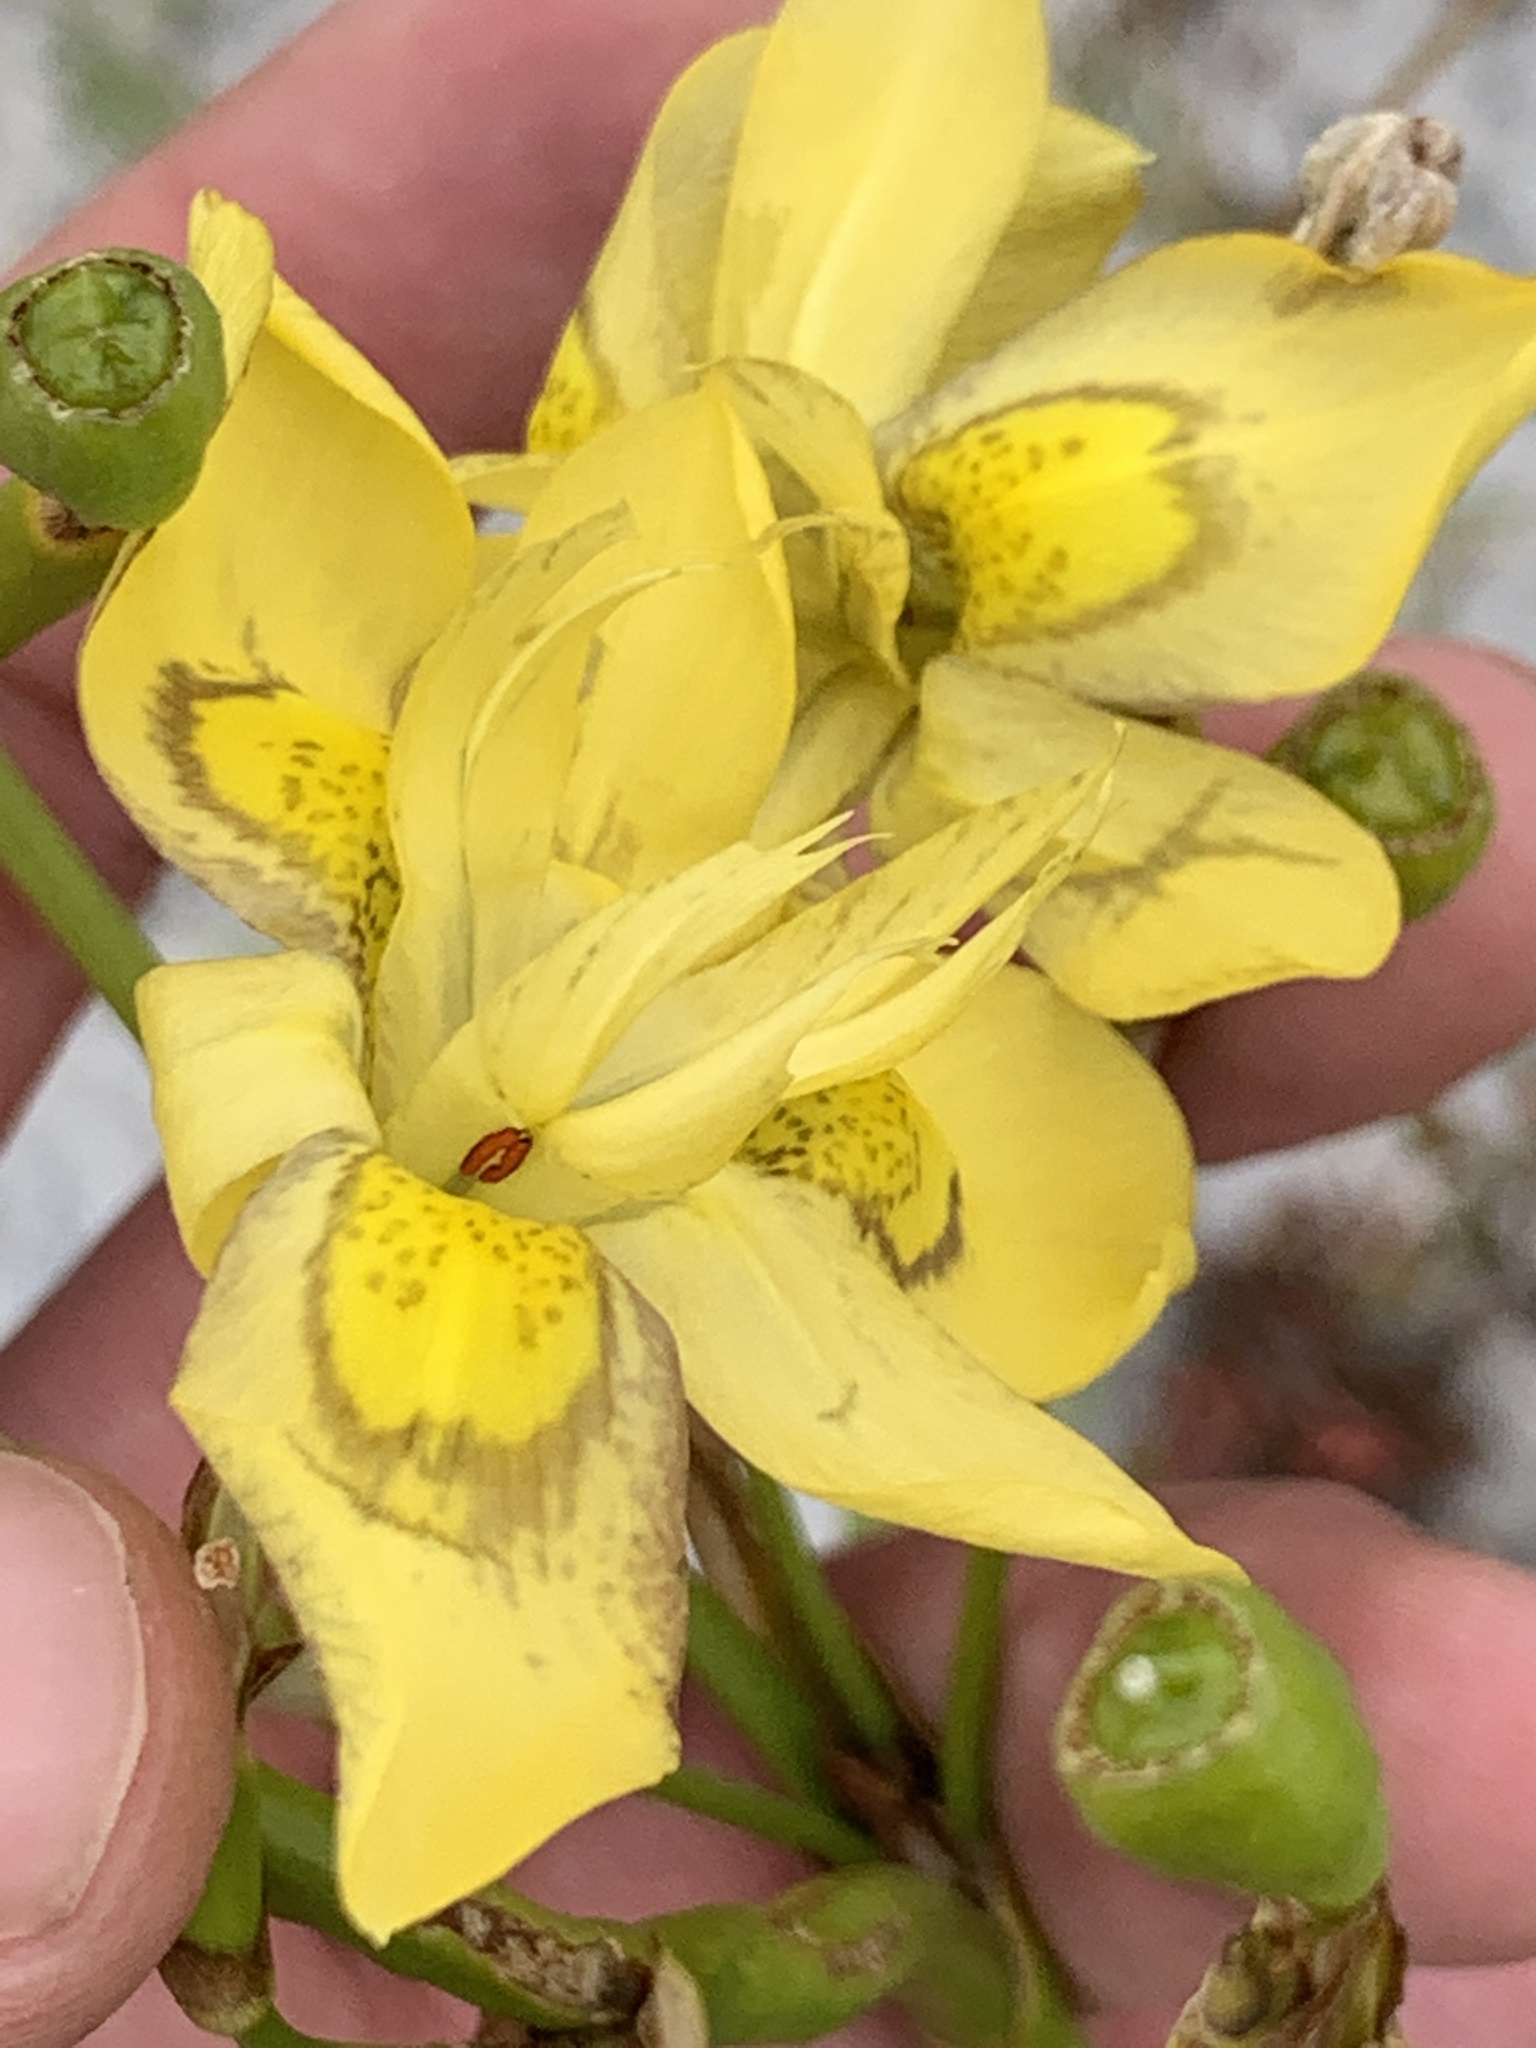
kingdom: Plantae
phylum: Tracheophyta
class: Liliopsida
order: Asparagales
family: Iridaceae
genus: Moraea
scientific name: Moraea ramosissima
